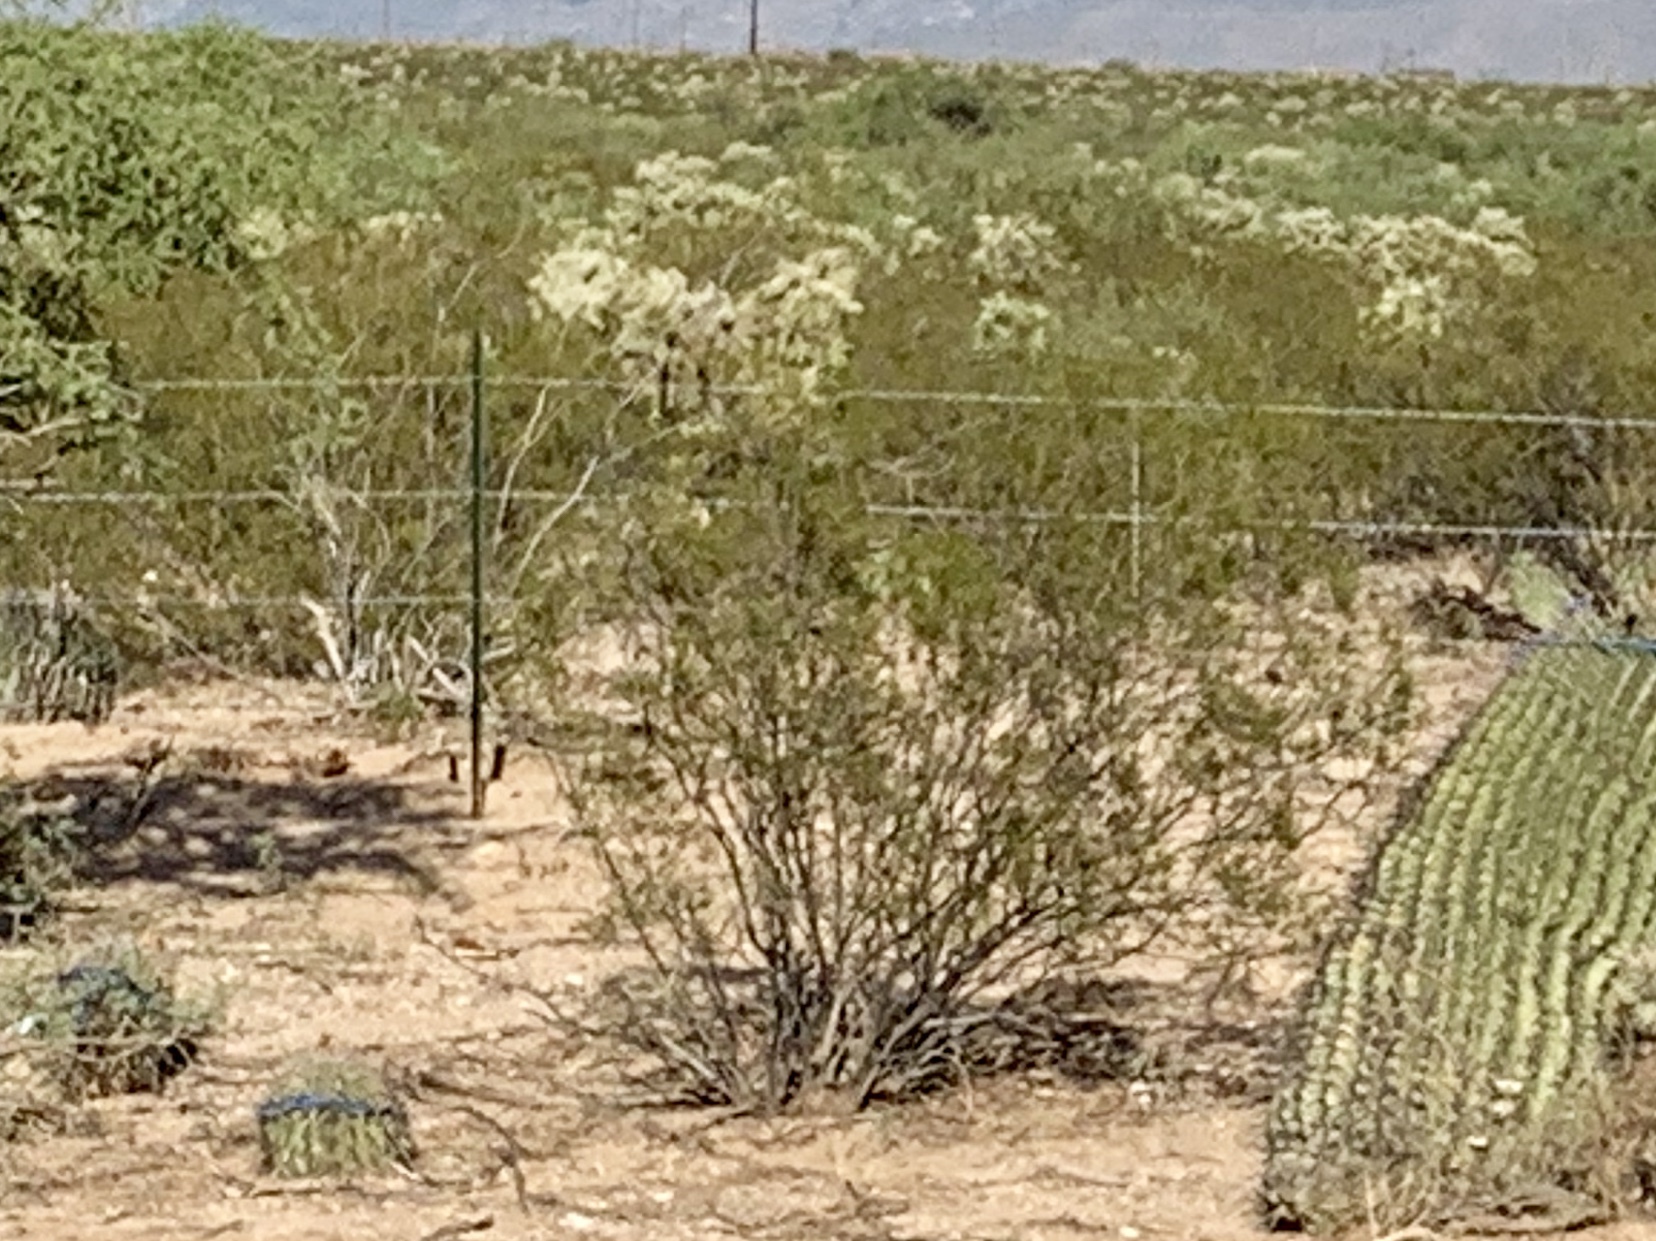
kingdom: Plantae
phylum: Tracheophyta
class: Magnoliopsida
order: Zygophyllales
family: Zygophyllaceae
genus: Larrea
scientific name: Larrea tridentata
